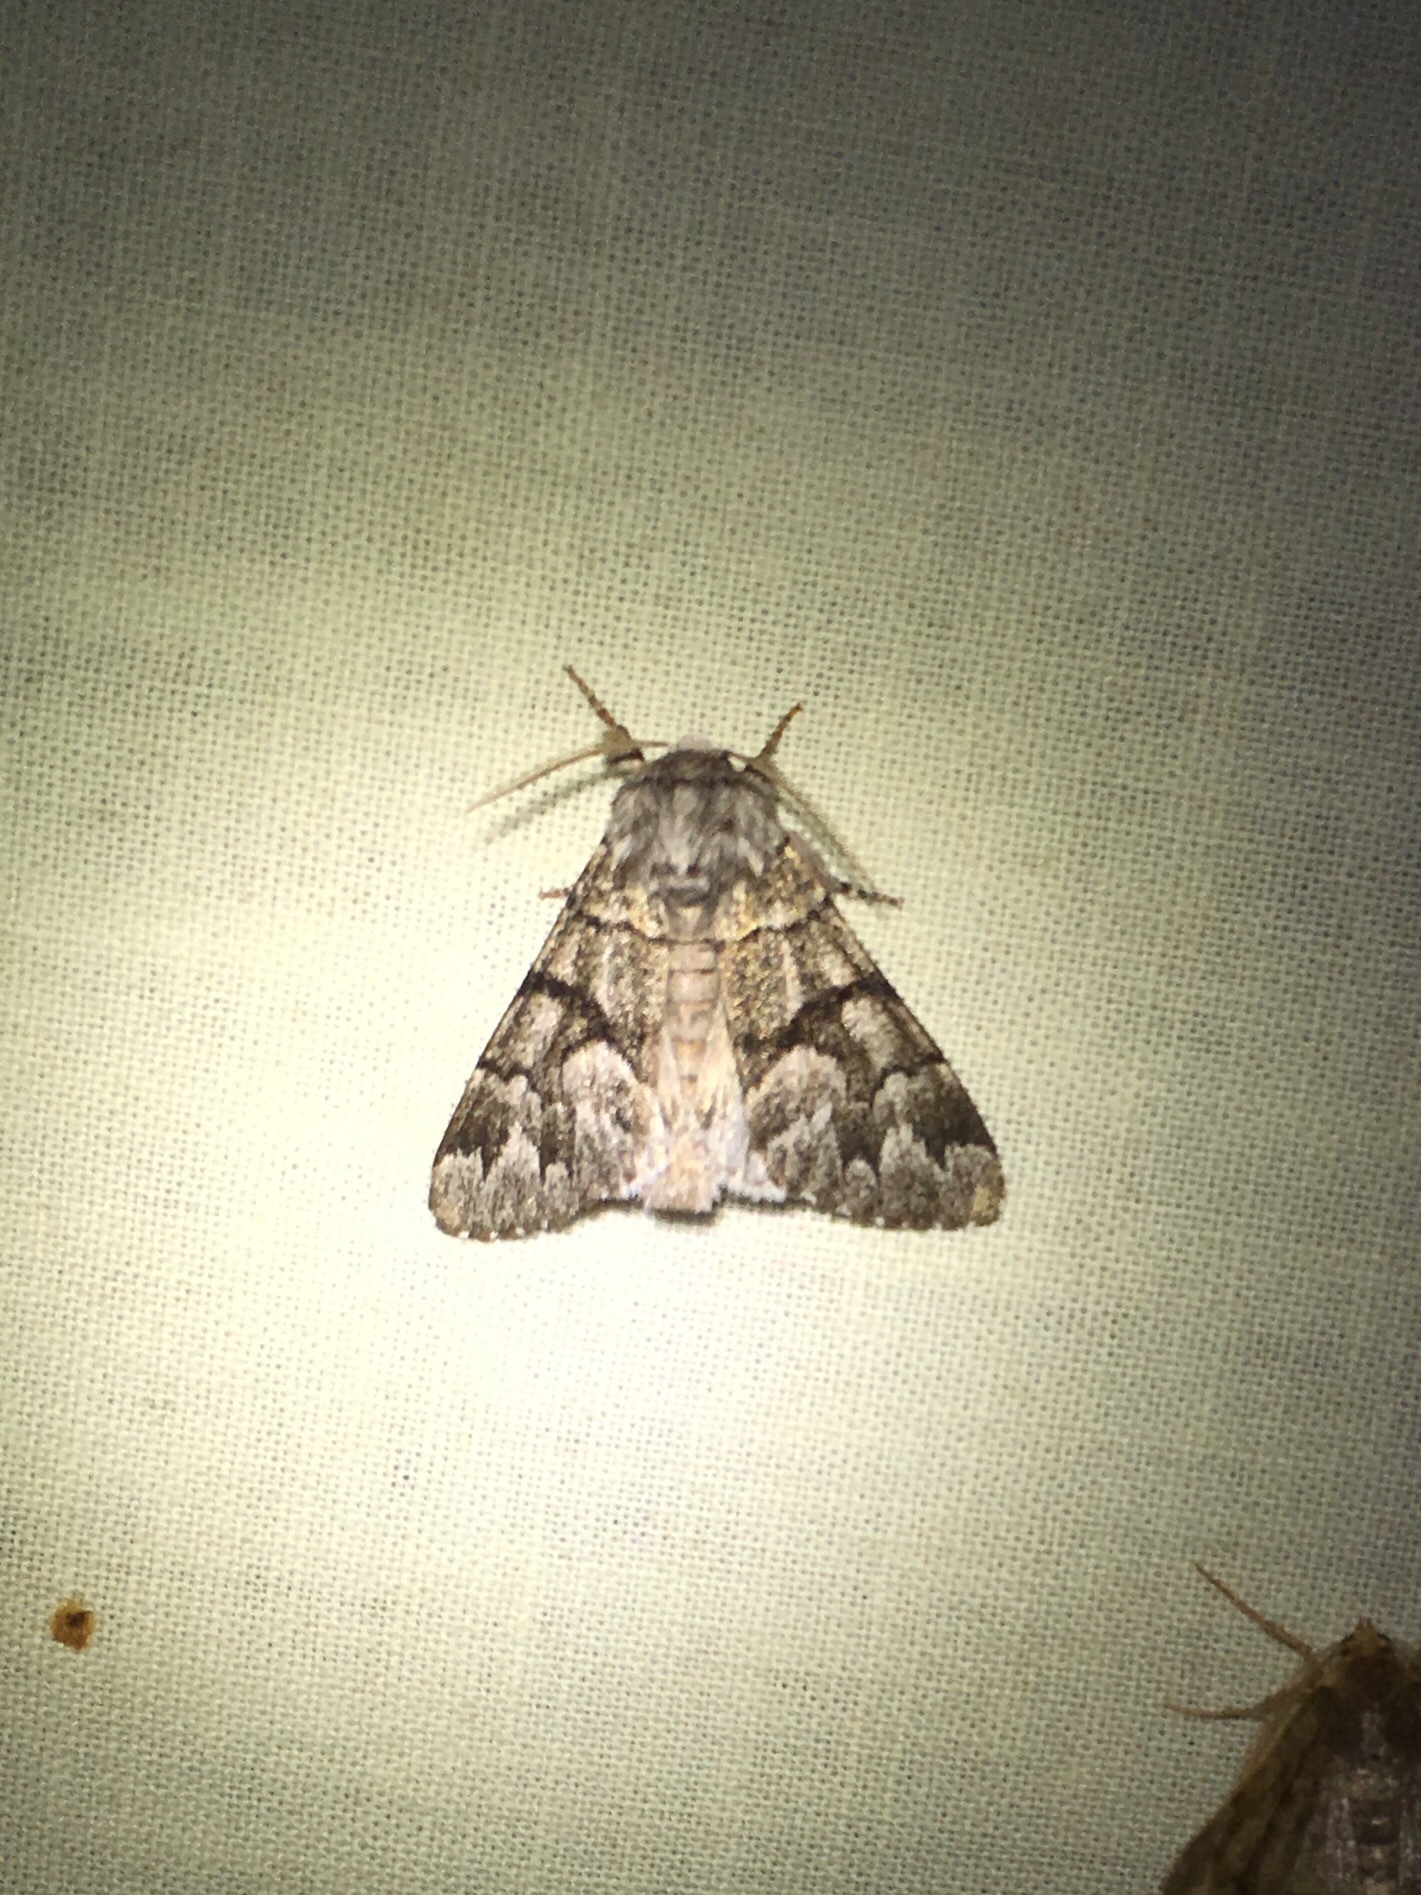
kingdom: Animalia
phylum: Arthropoda
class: Insecta
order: Lepidoptera
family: Noctuidae
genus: Panthea
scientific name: Panthea furcilla
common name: Eastern panthea moth
